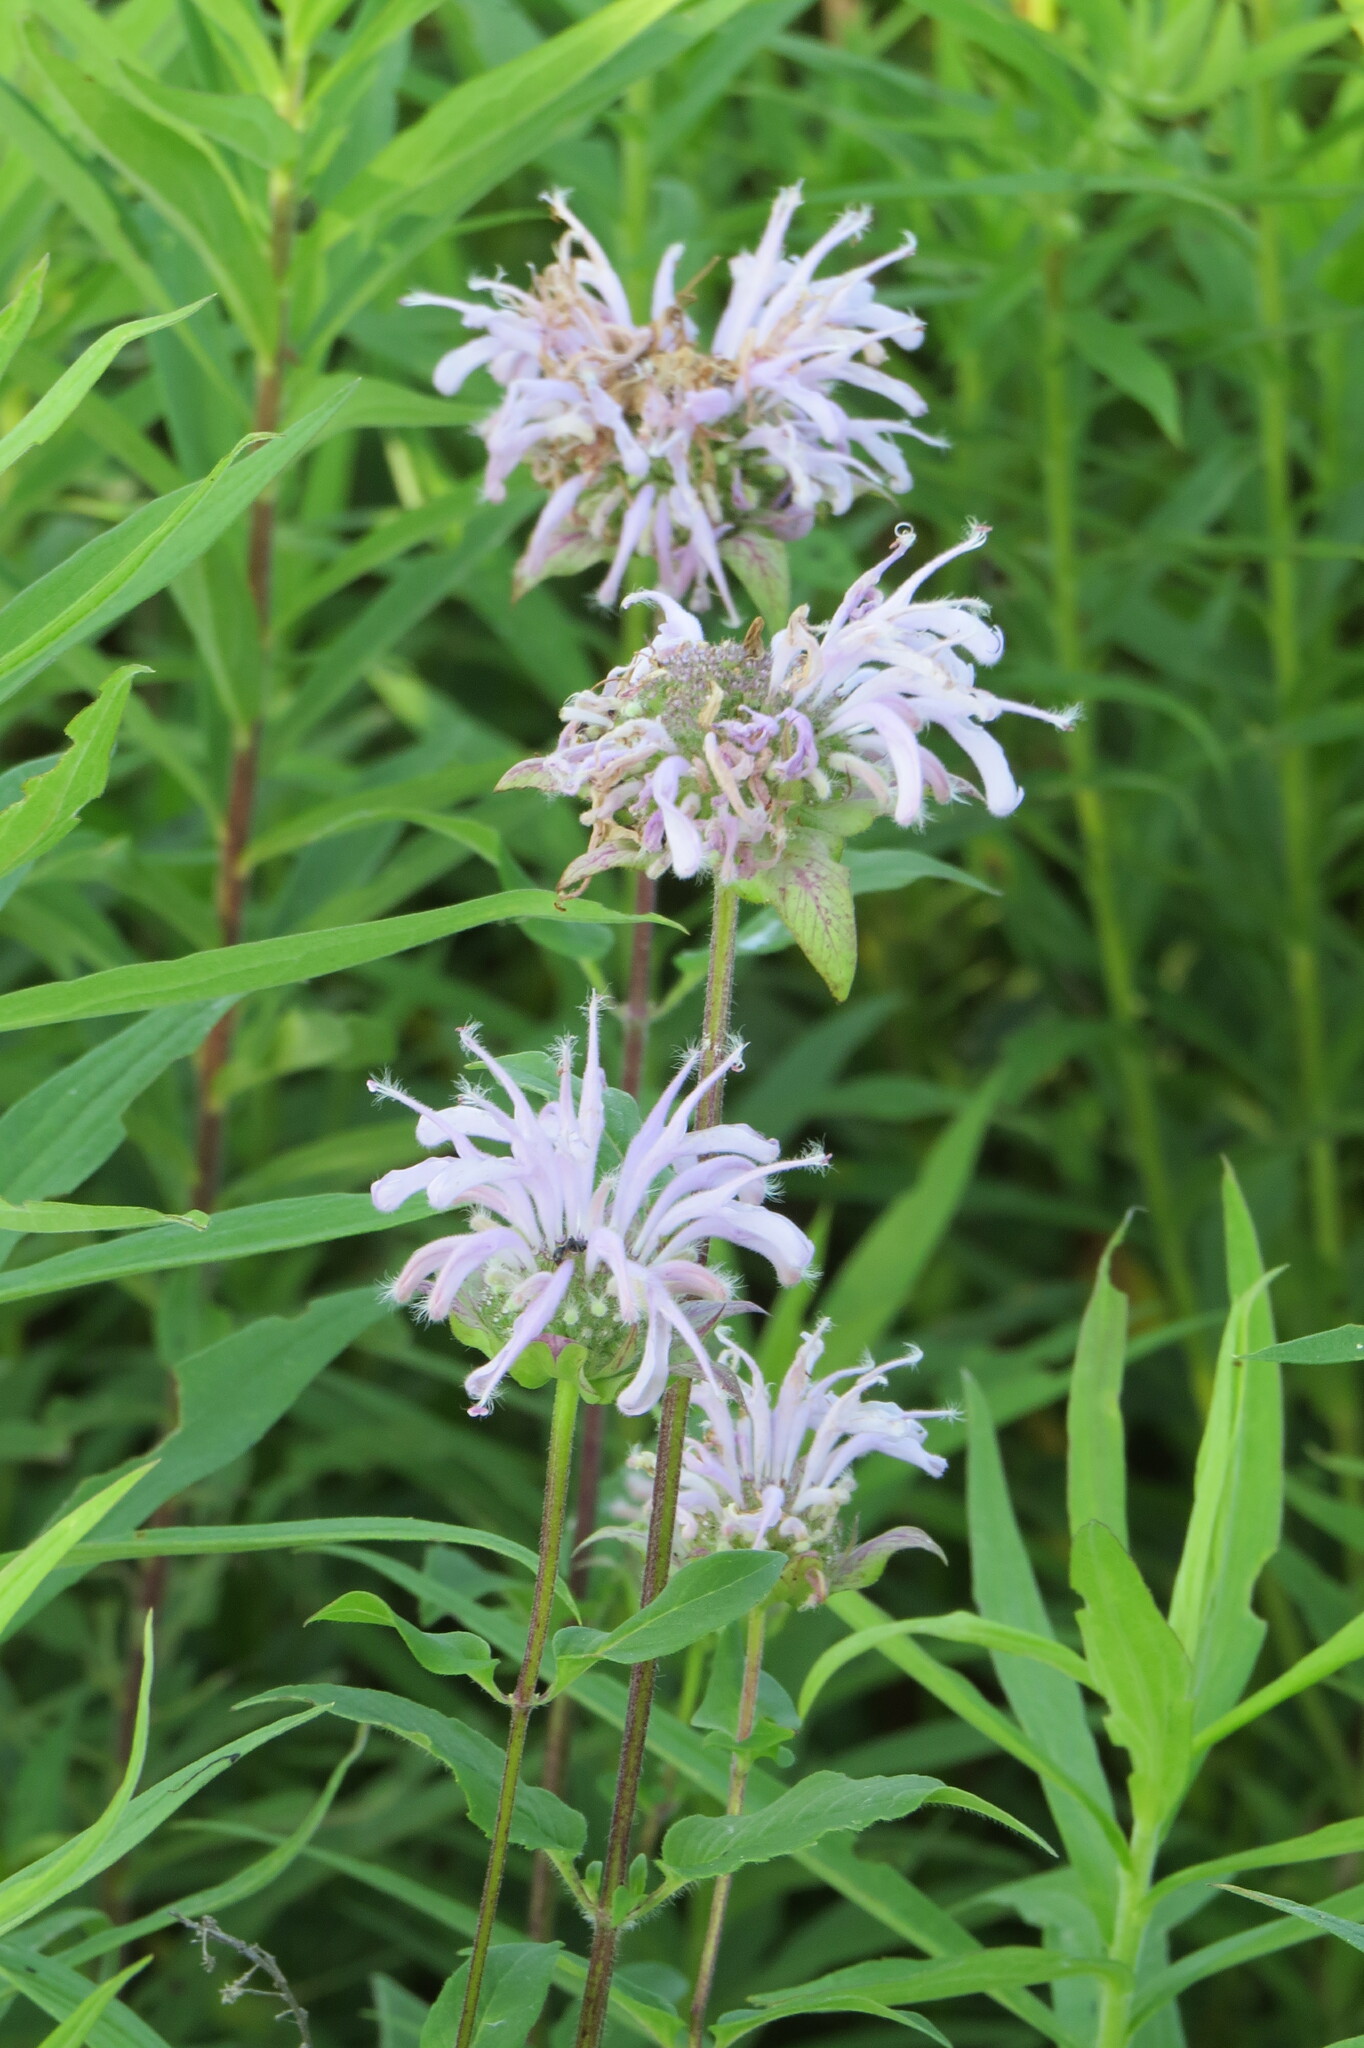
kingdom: Plantae
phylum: Tracheophyta
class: Magnoliopsida
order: Lamiales
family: Lamiaceae
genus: Monarda
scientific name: Monarda fistulosa
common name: Purple beebalm
